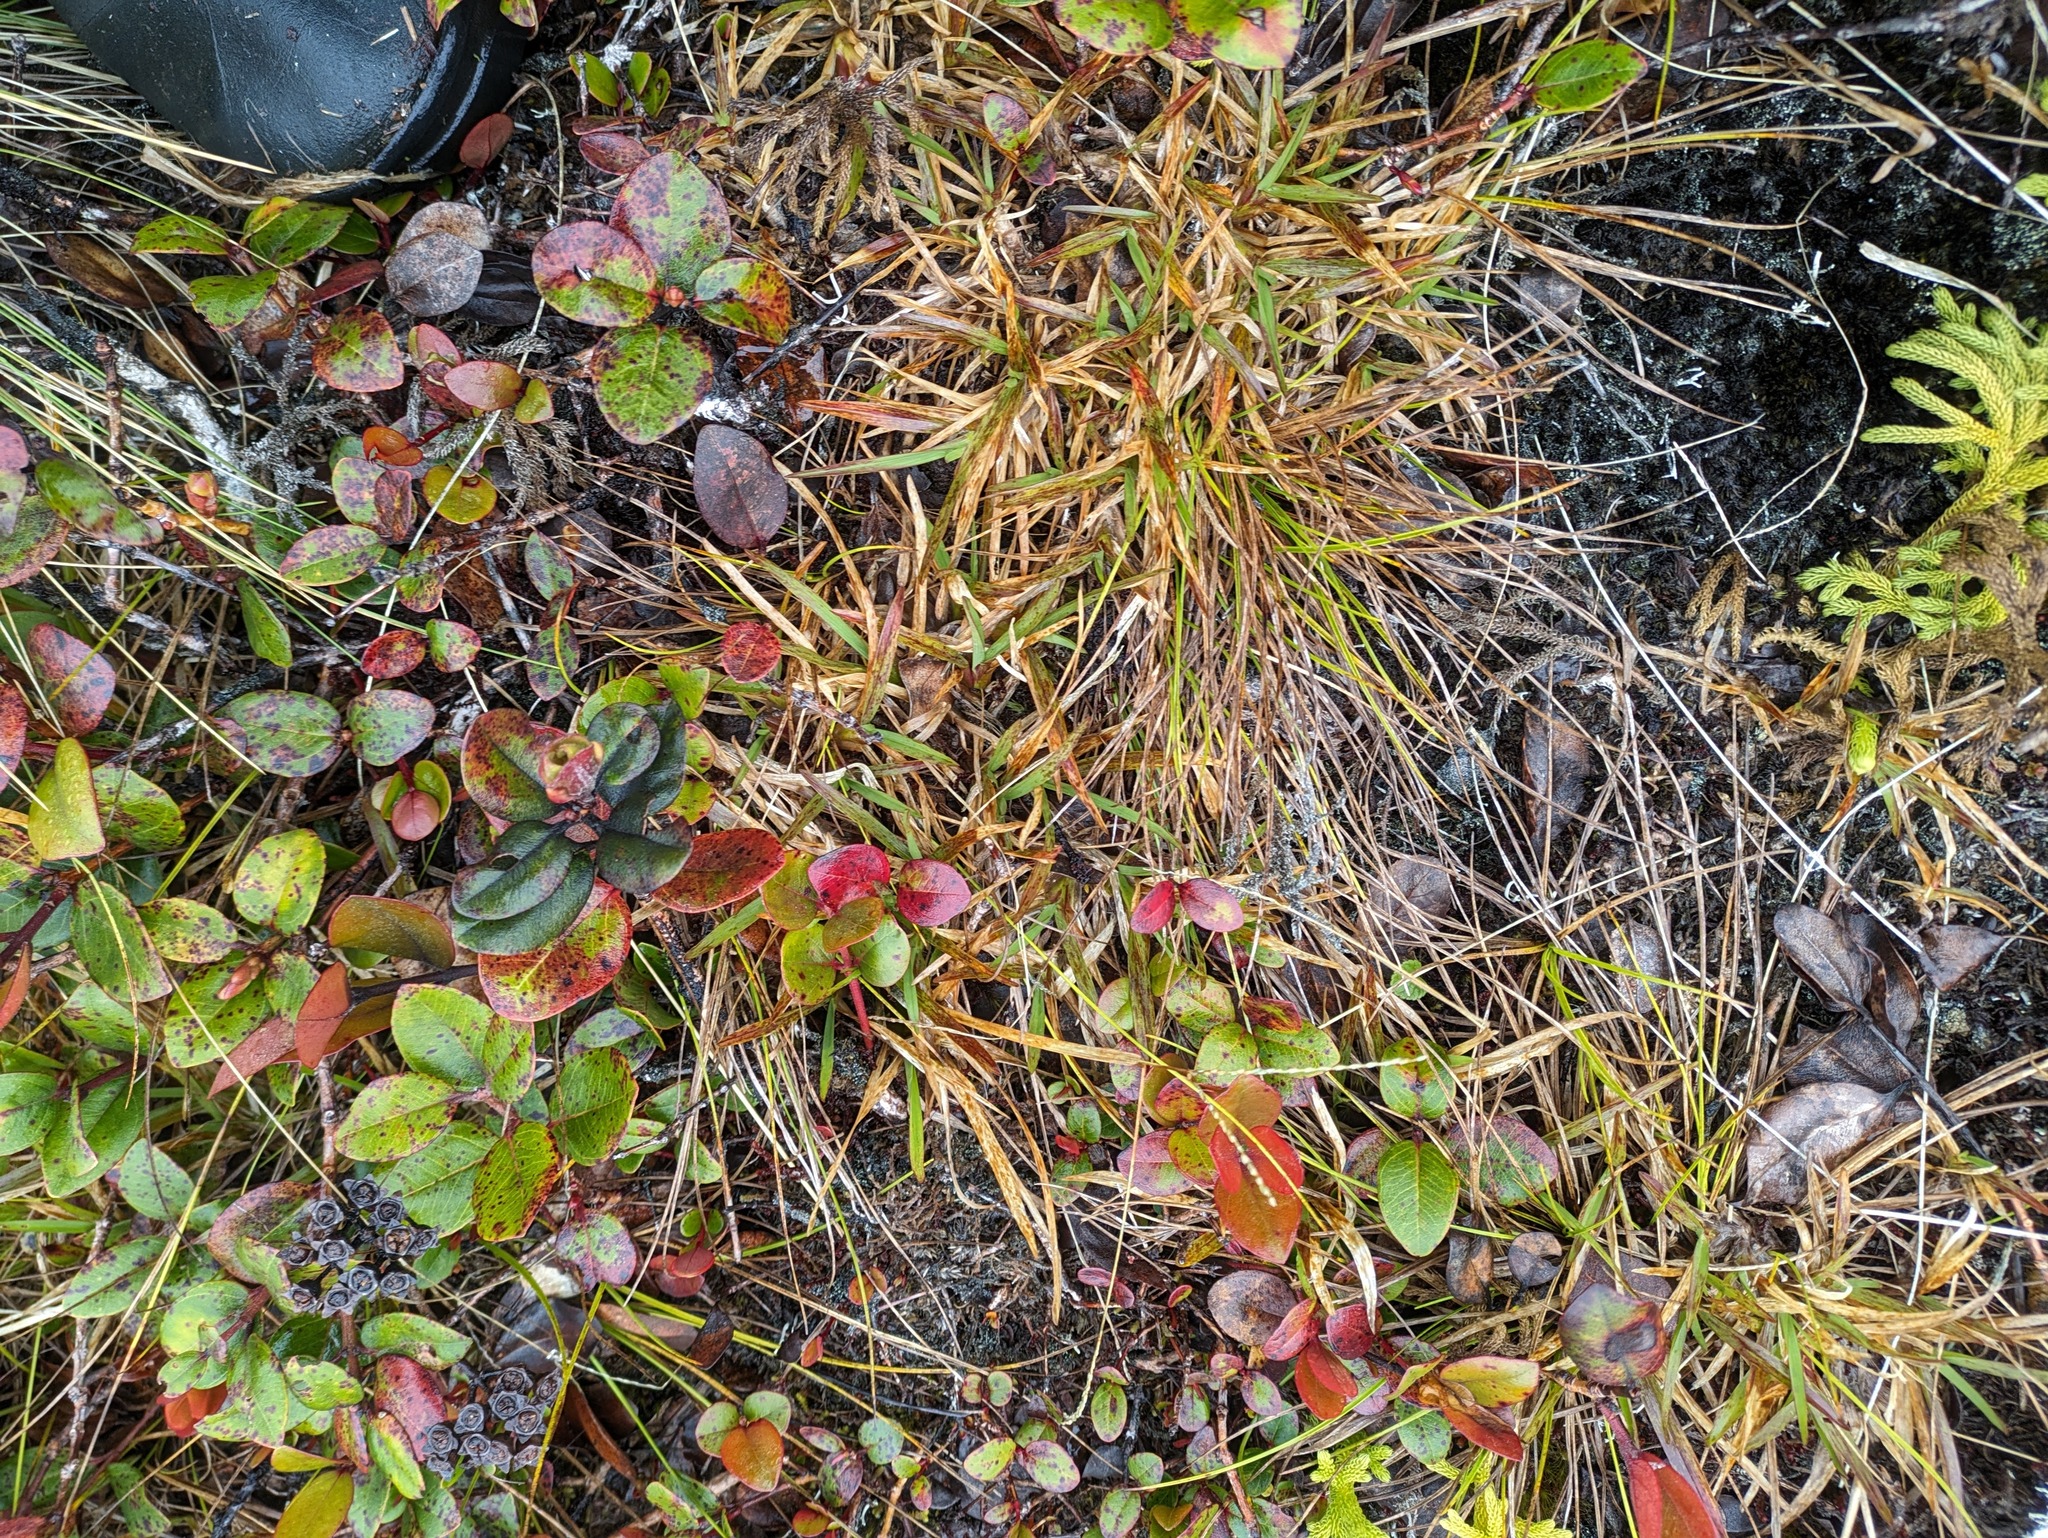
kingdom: Plantae
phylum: Tracheophyta
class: Liliopsida
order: Poales
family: Poaceae
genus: Axonopus
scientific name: Axonopus fissifolius
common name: Common carpetgrass
